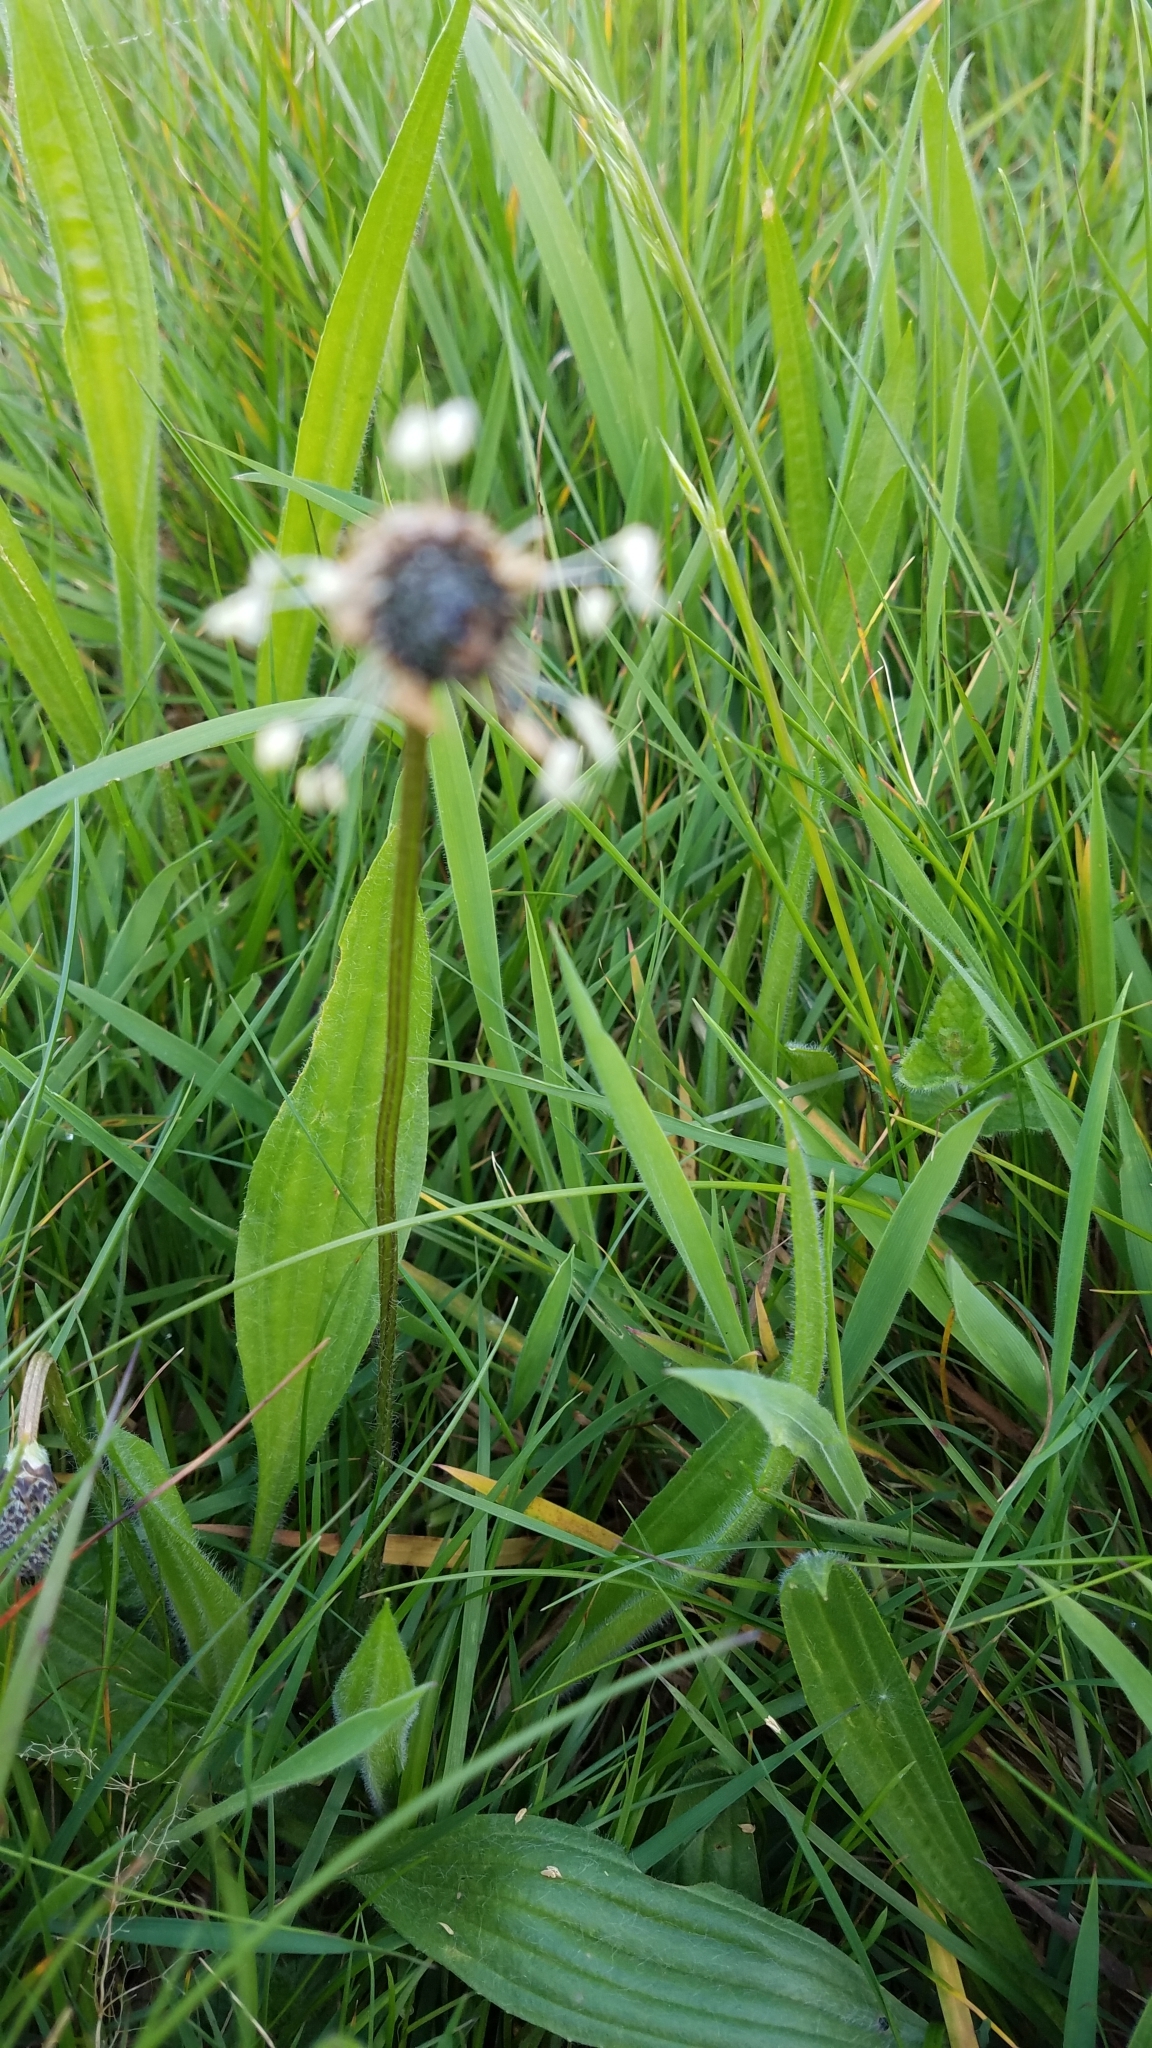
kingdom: Plantae
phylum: Tracheophyta
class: Magnoliopsida
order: Lamiales
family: Plantaginaceae
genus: Plantago
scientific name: Plantago lanceolata
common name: Ribwort plantain
